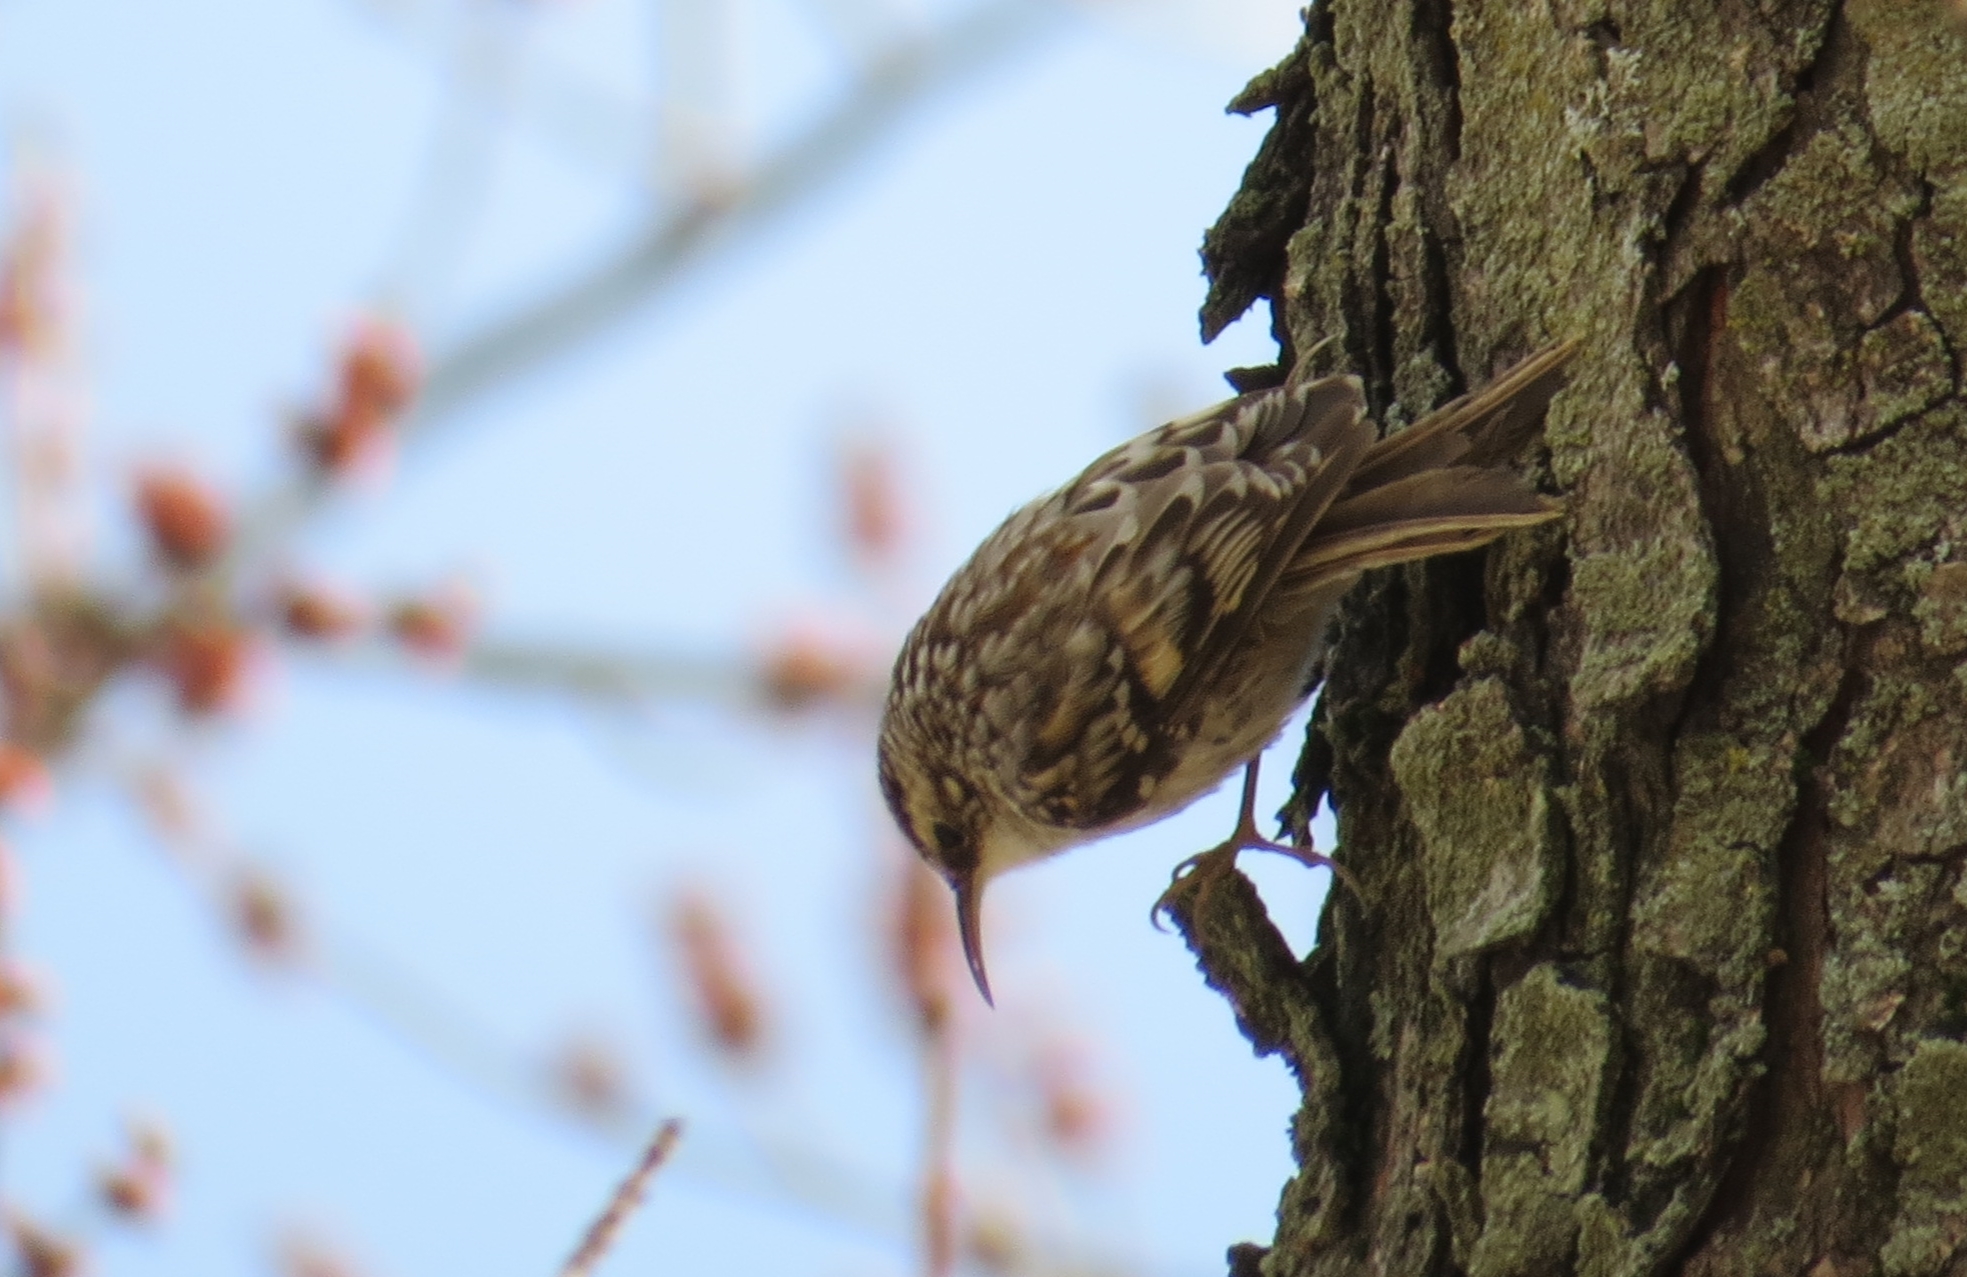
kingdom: Animalia
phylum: Chordata
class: Aves
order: Passeriformes
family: Certhiidae
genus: Certhia
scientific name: Certhia americana
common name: Brown creeper
